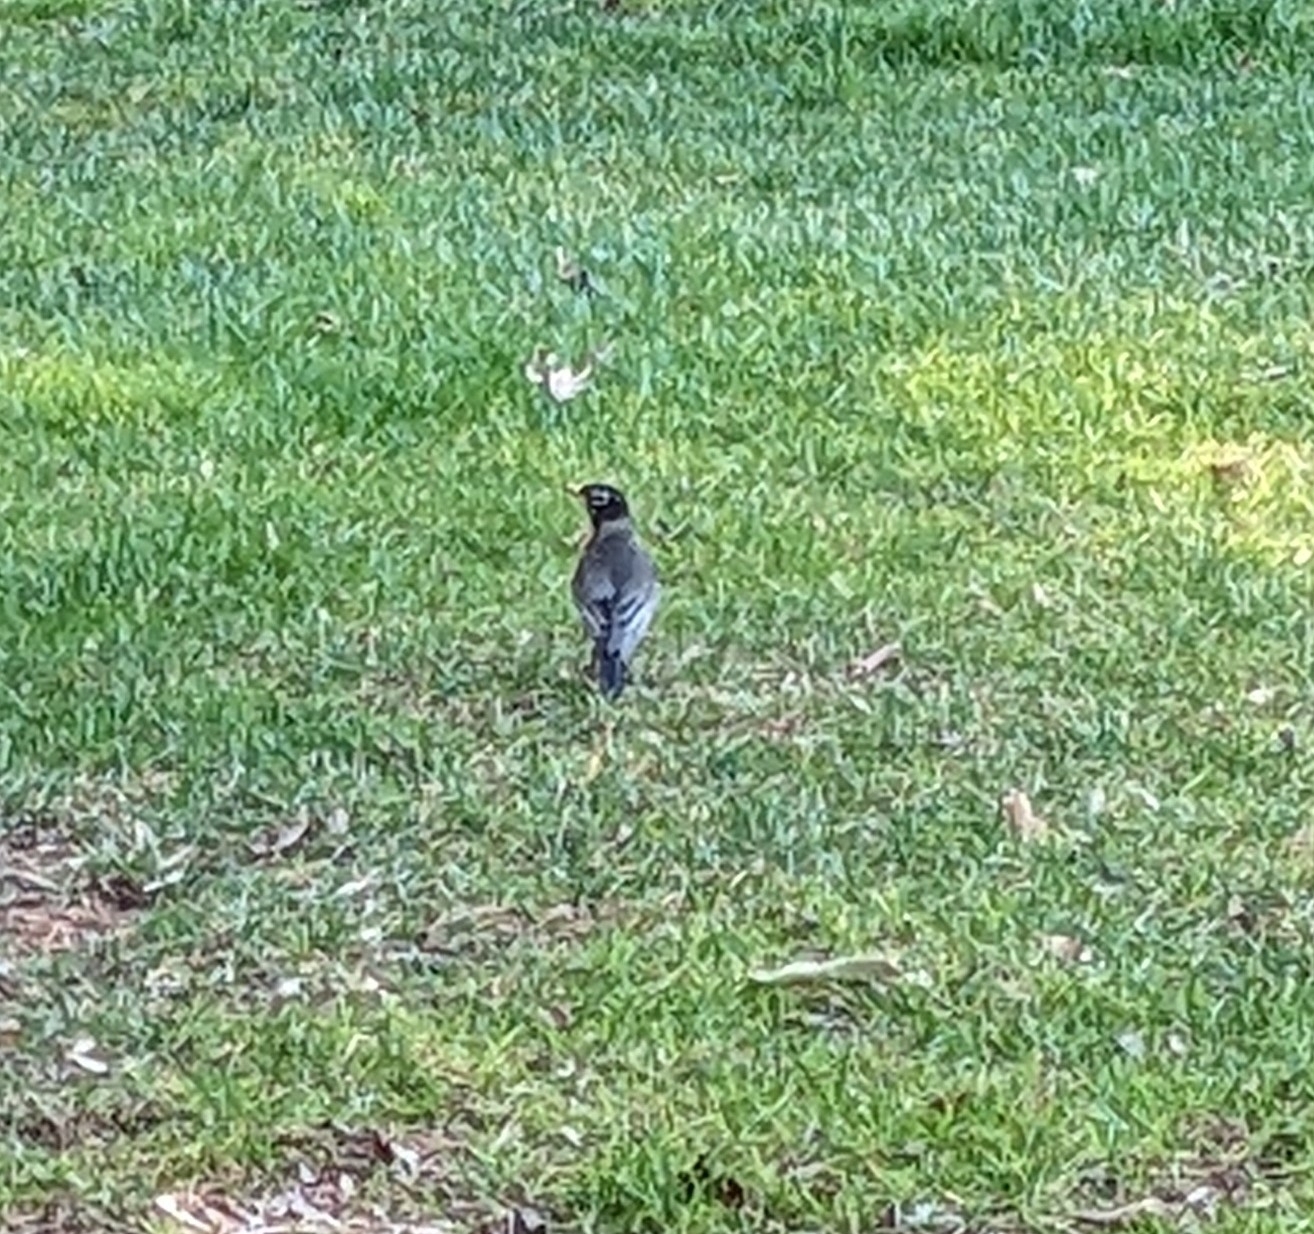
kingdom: Animalia
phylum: Chordata
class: Aves
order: Passeriformes
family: Turdidae
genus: Turdus
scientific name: Turdus migratorius
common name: American robin
